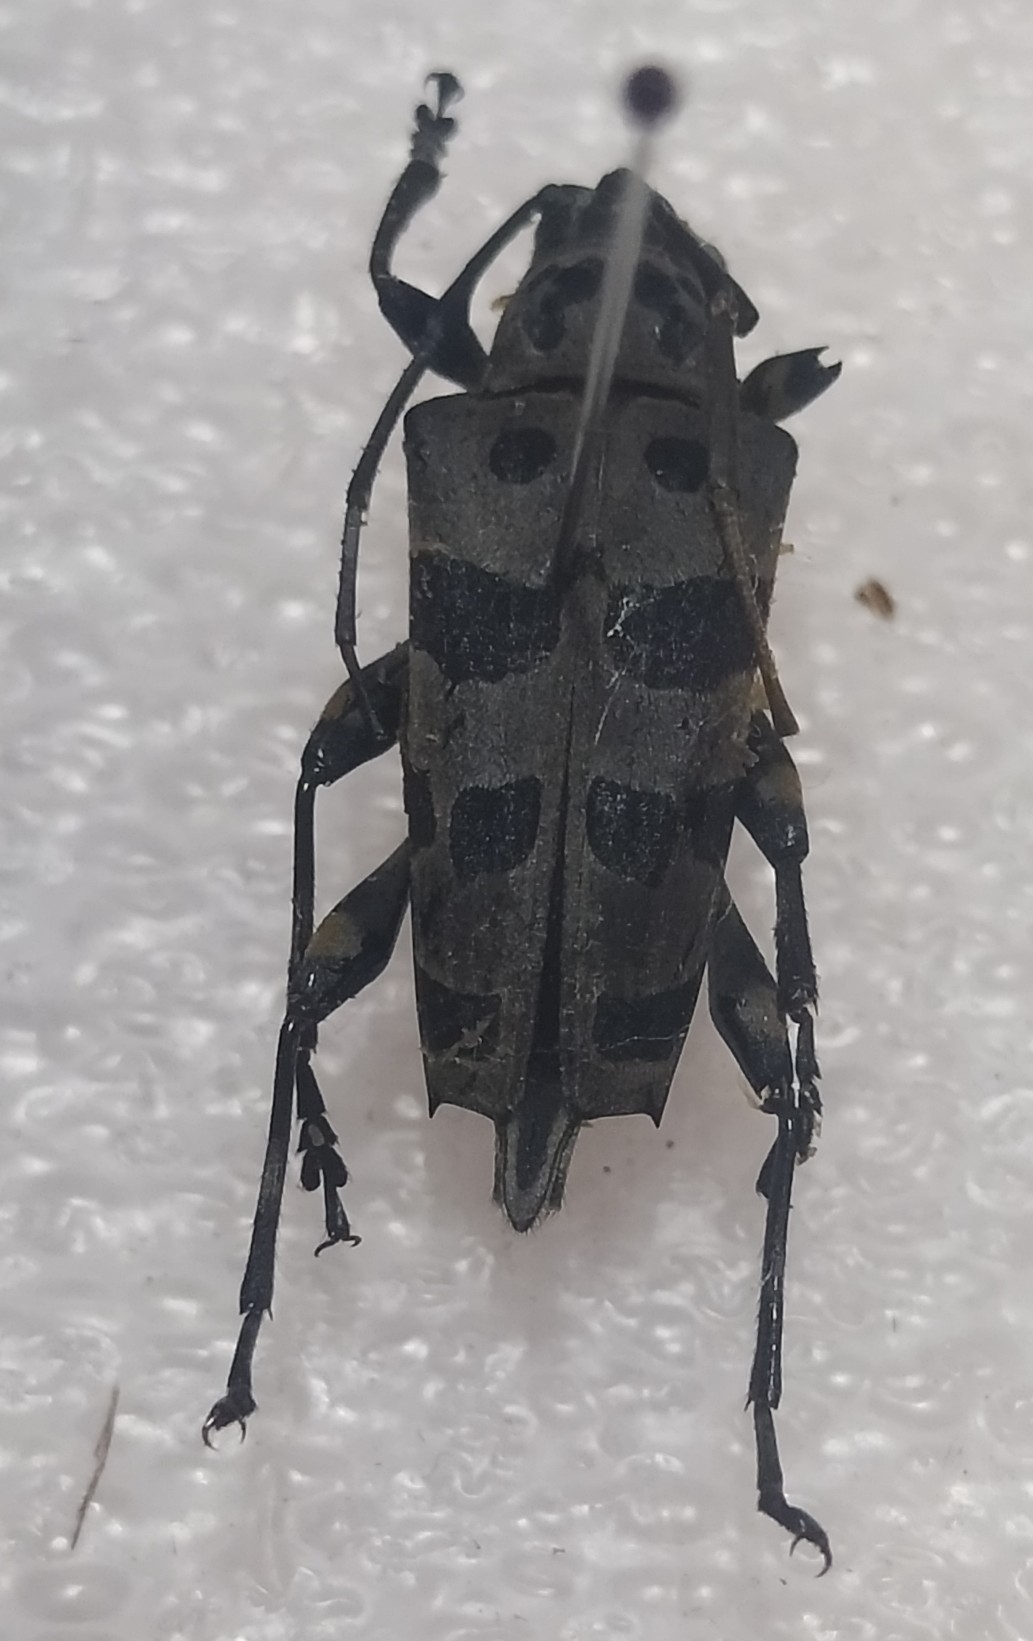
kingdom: Animalia
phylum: Arthropoda
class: Insecta
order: Coleoptera
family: Cerambycidae
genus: Carneades
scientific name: Carneades grandis
